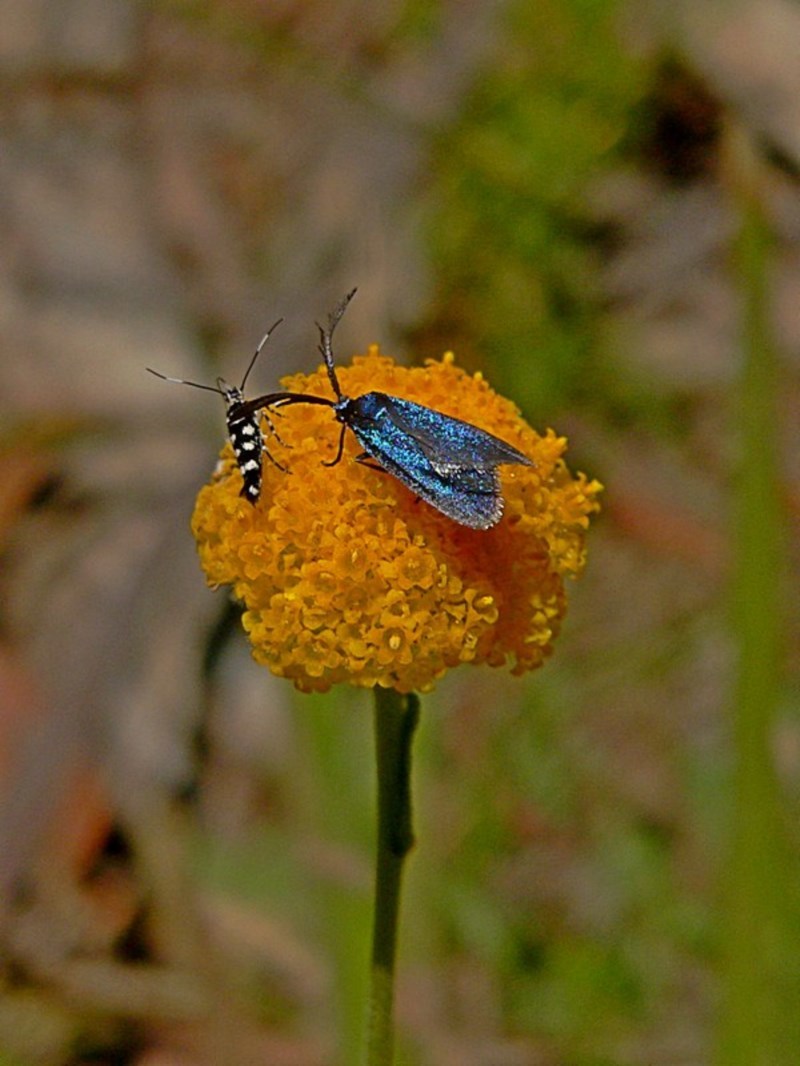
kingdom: Animalia
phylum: Arthropoda
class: Insecta
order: Lepidoptera
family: Zygaenidae
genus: Pollanisus
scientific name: Pollanisus viridipulverulenta
